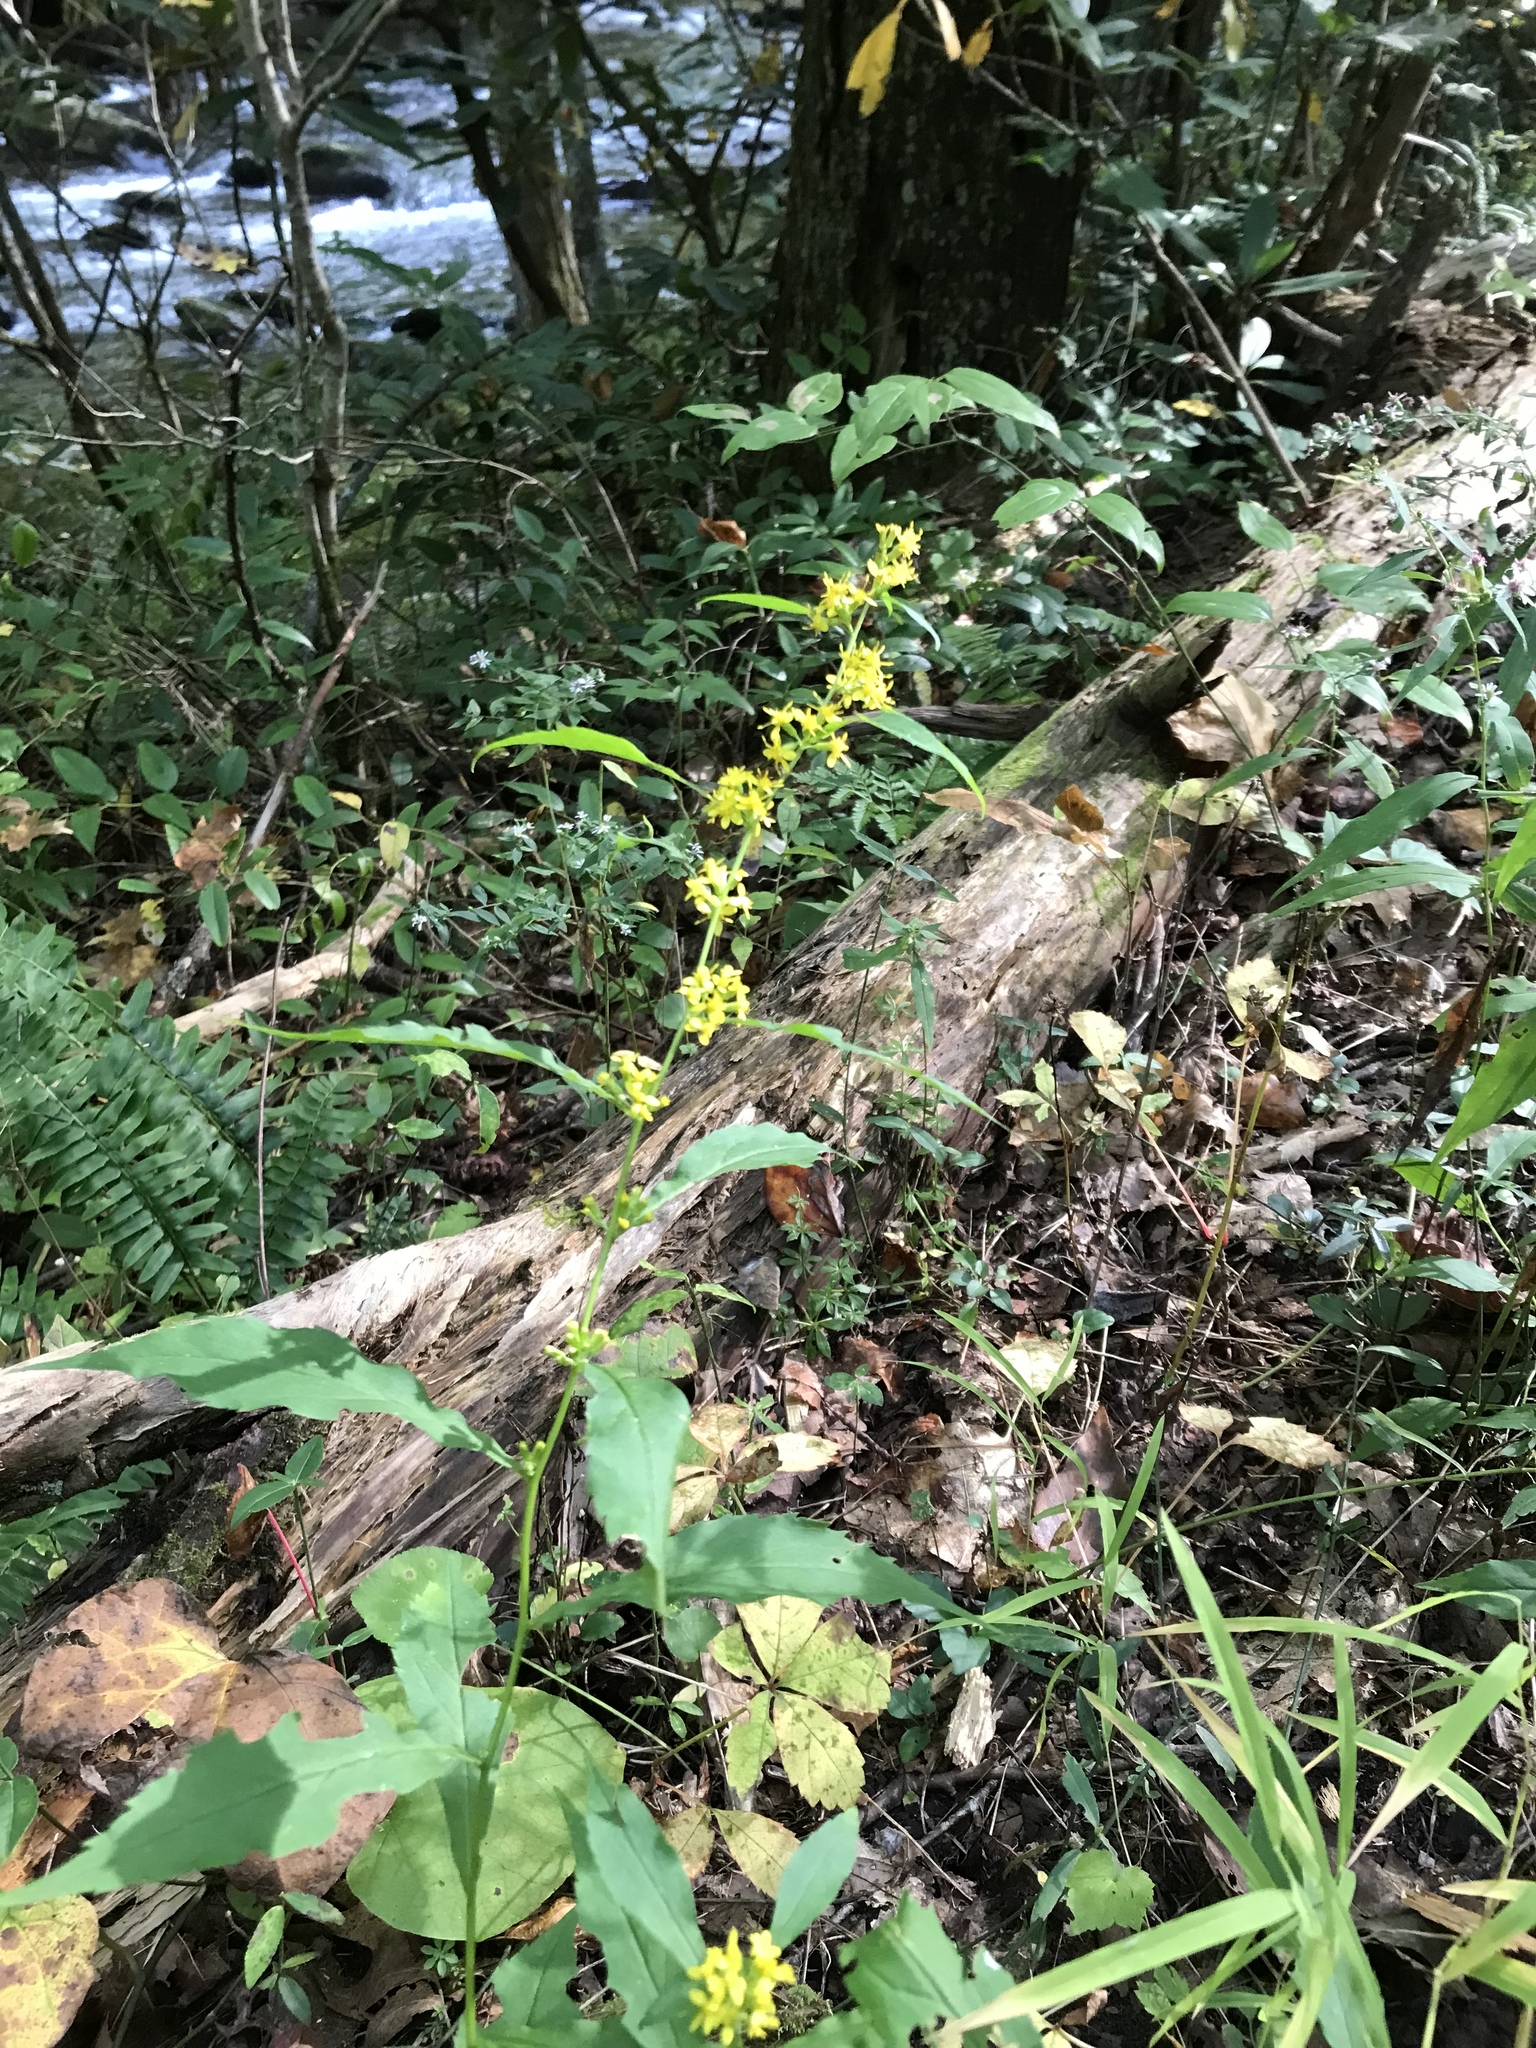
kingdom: Plantae
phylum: Tracheophyta
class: Magnoliopsida
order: Asterales
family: Asteraceae
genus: Solidago
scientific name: Solidago flexicaulis
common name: Zig-zag goldenrod
